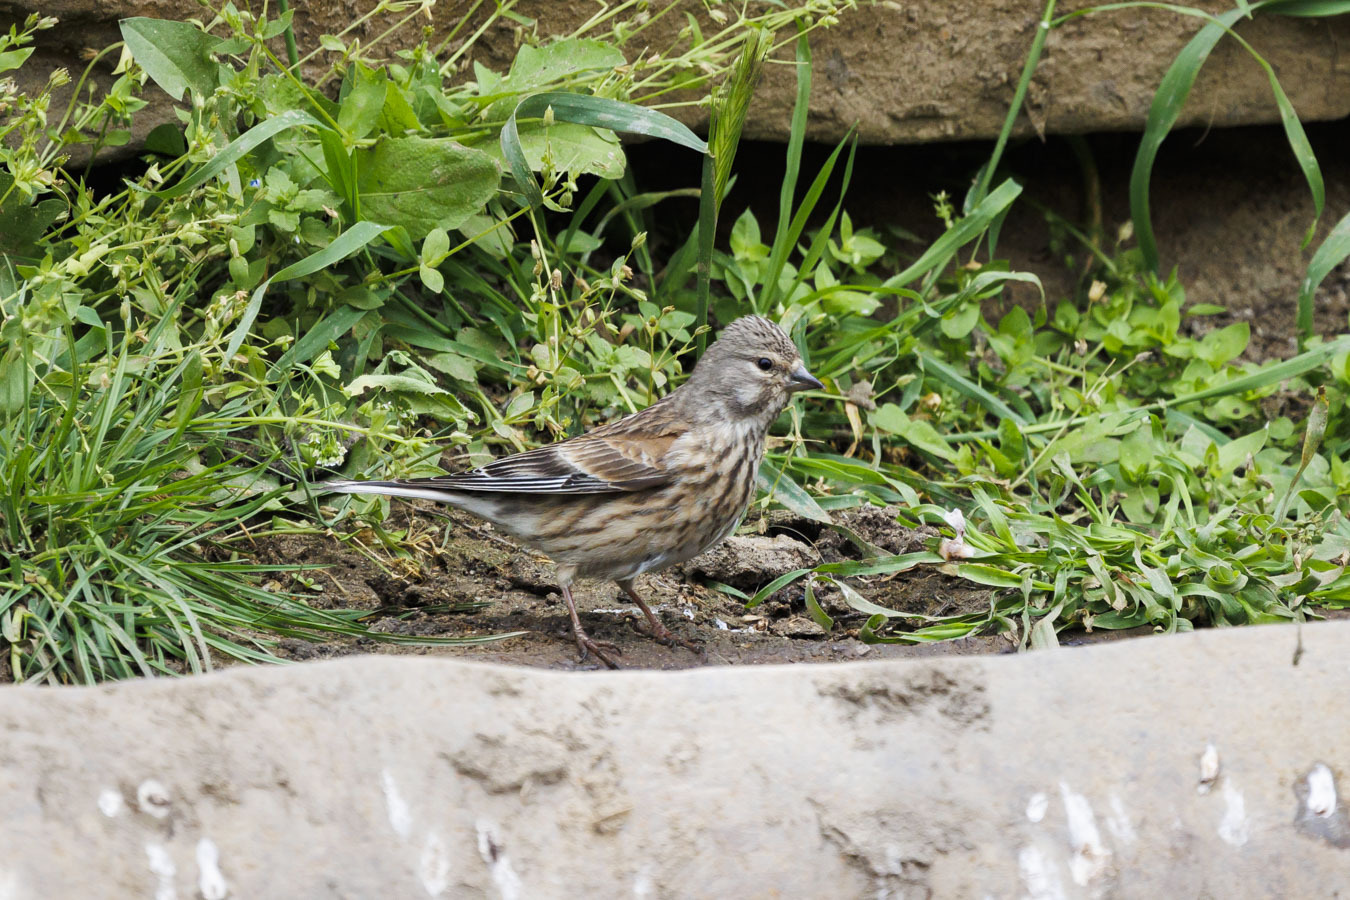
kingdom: Animalia
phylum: Chordata
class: Aves
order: Passeriformes
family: Fringillidae
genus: Linaria
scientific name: Linaria cannabina
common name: Common linnet
